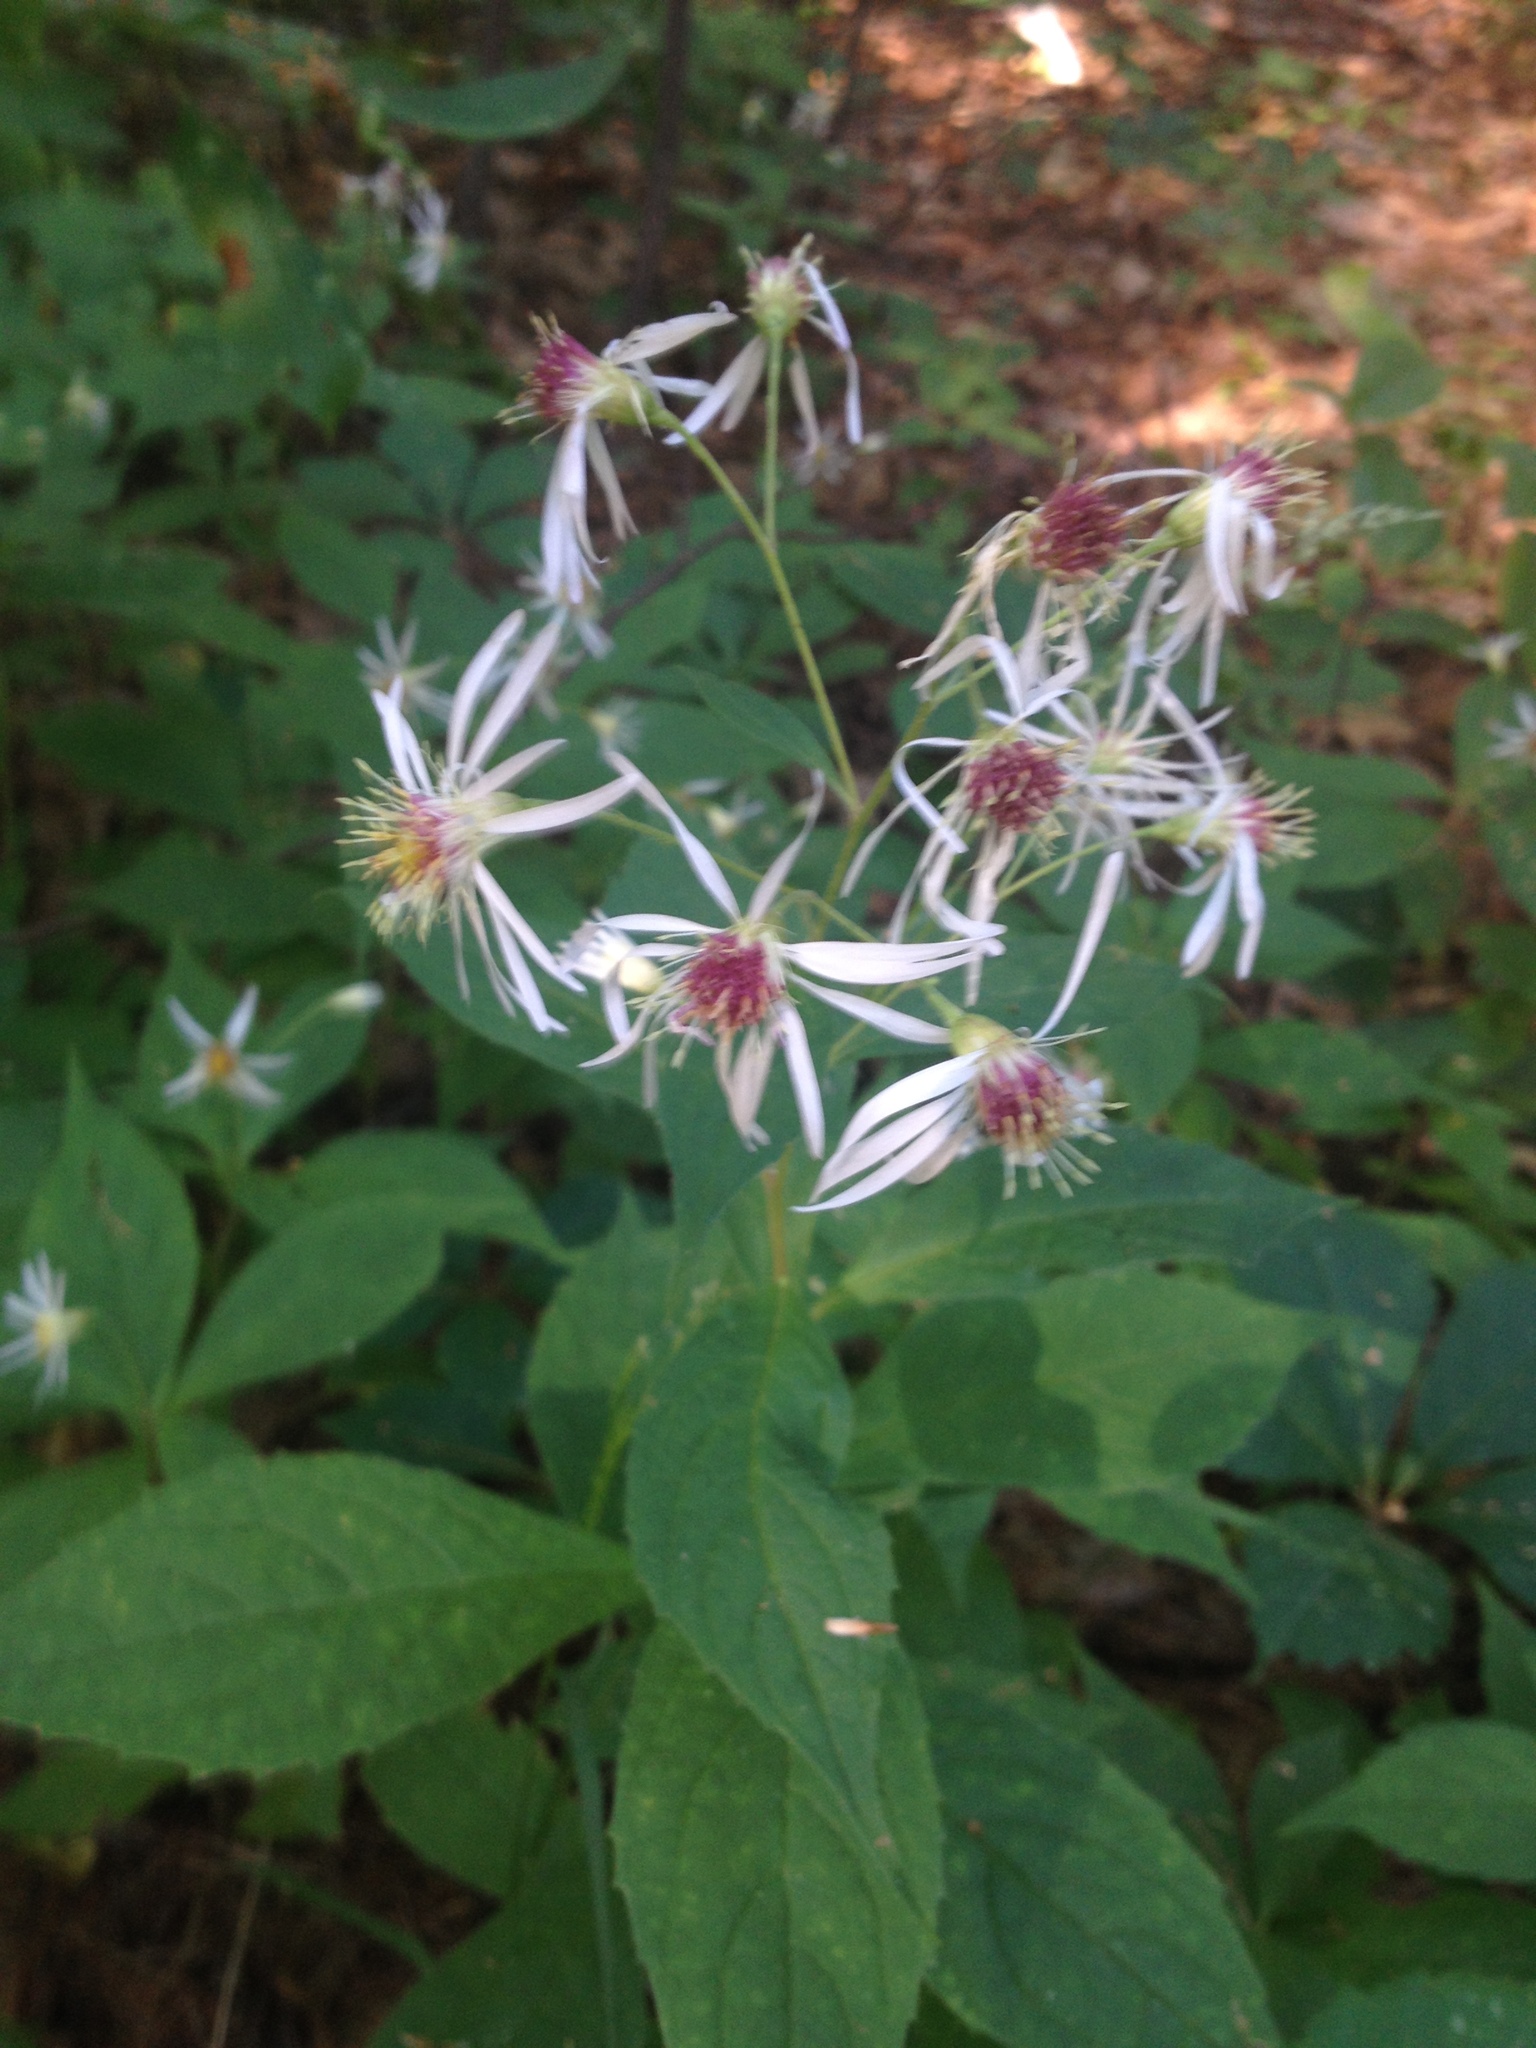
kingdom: Plantae
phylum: Tracheophyta
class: Magnoliopsida
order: Asterales
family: Asteraceae
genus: Oclemena
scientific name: Oclemena acuminata
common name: Mountain aster
